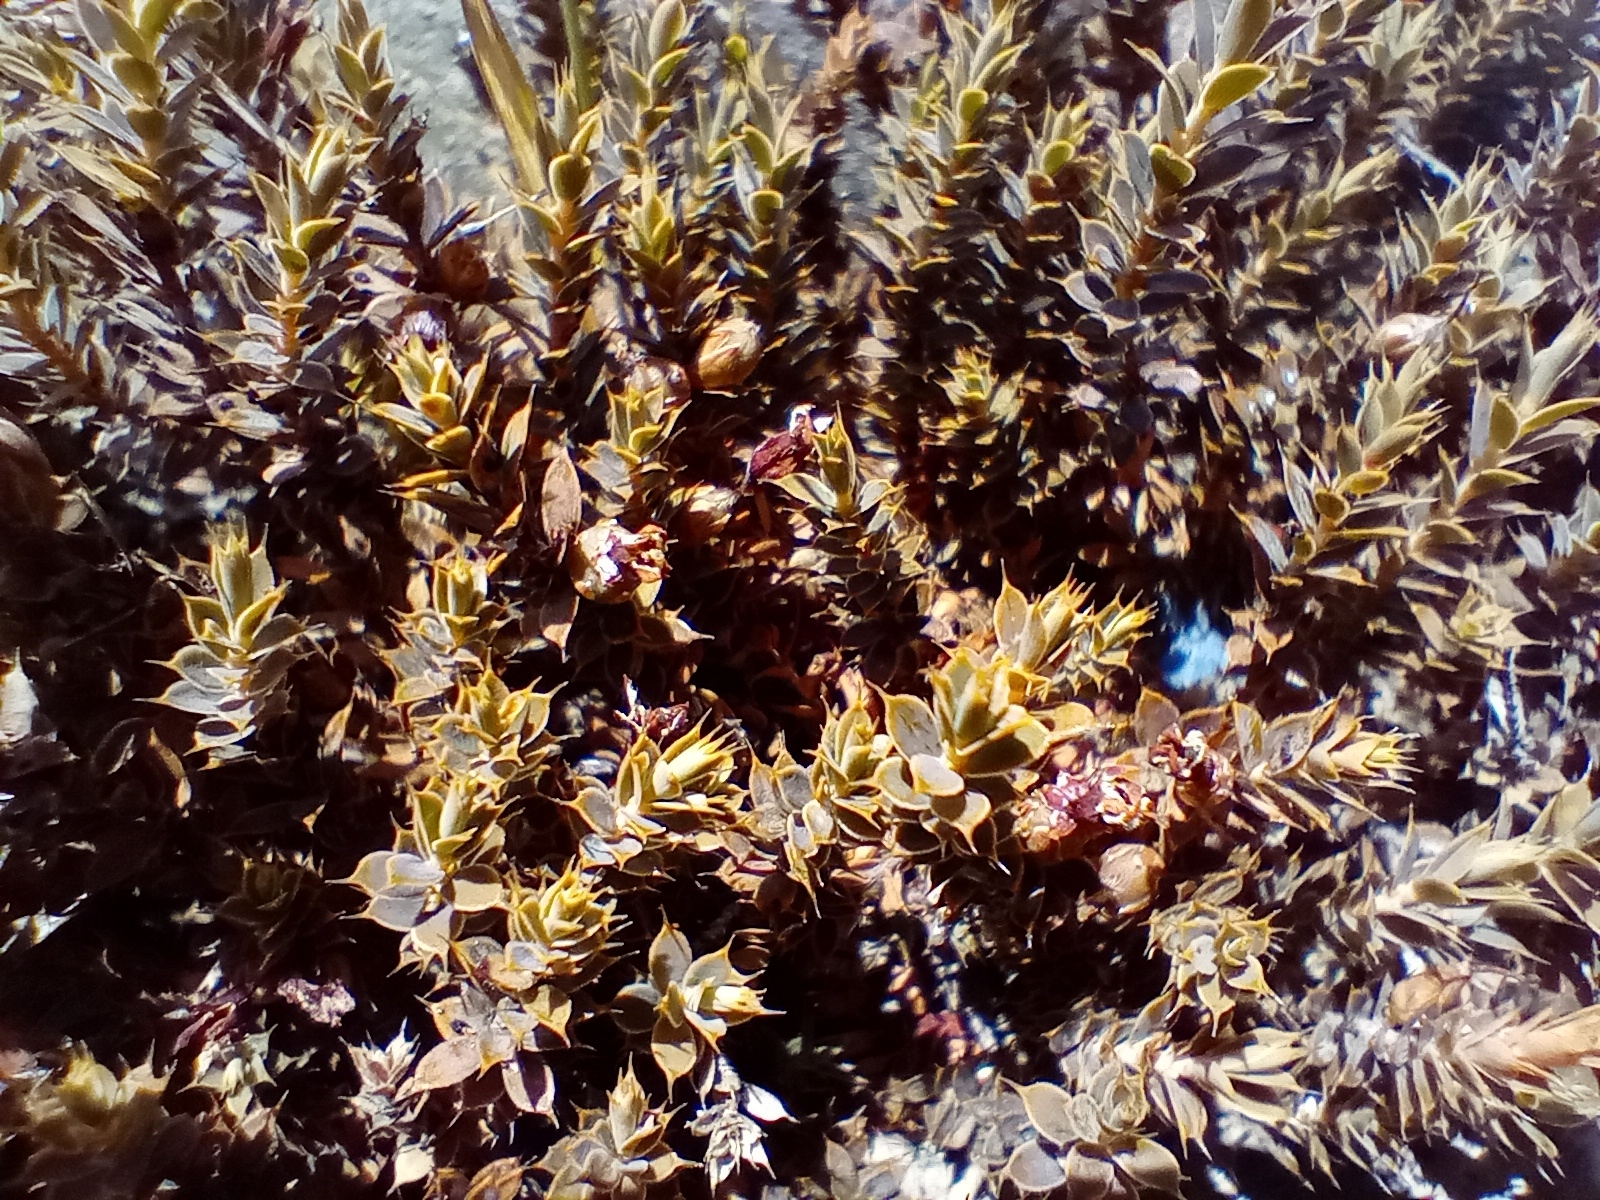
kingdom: Plantae
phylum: Tracheophyta
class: Magnoliopsida
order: Ericales
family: Ericaceae
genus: Styphelia
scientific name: Styphelia nesophila
